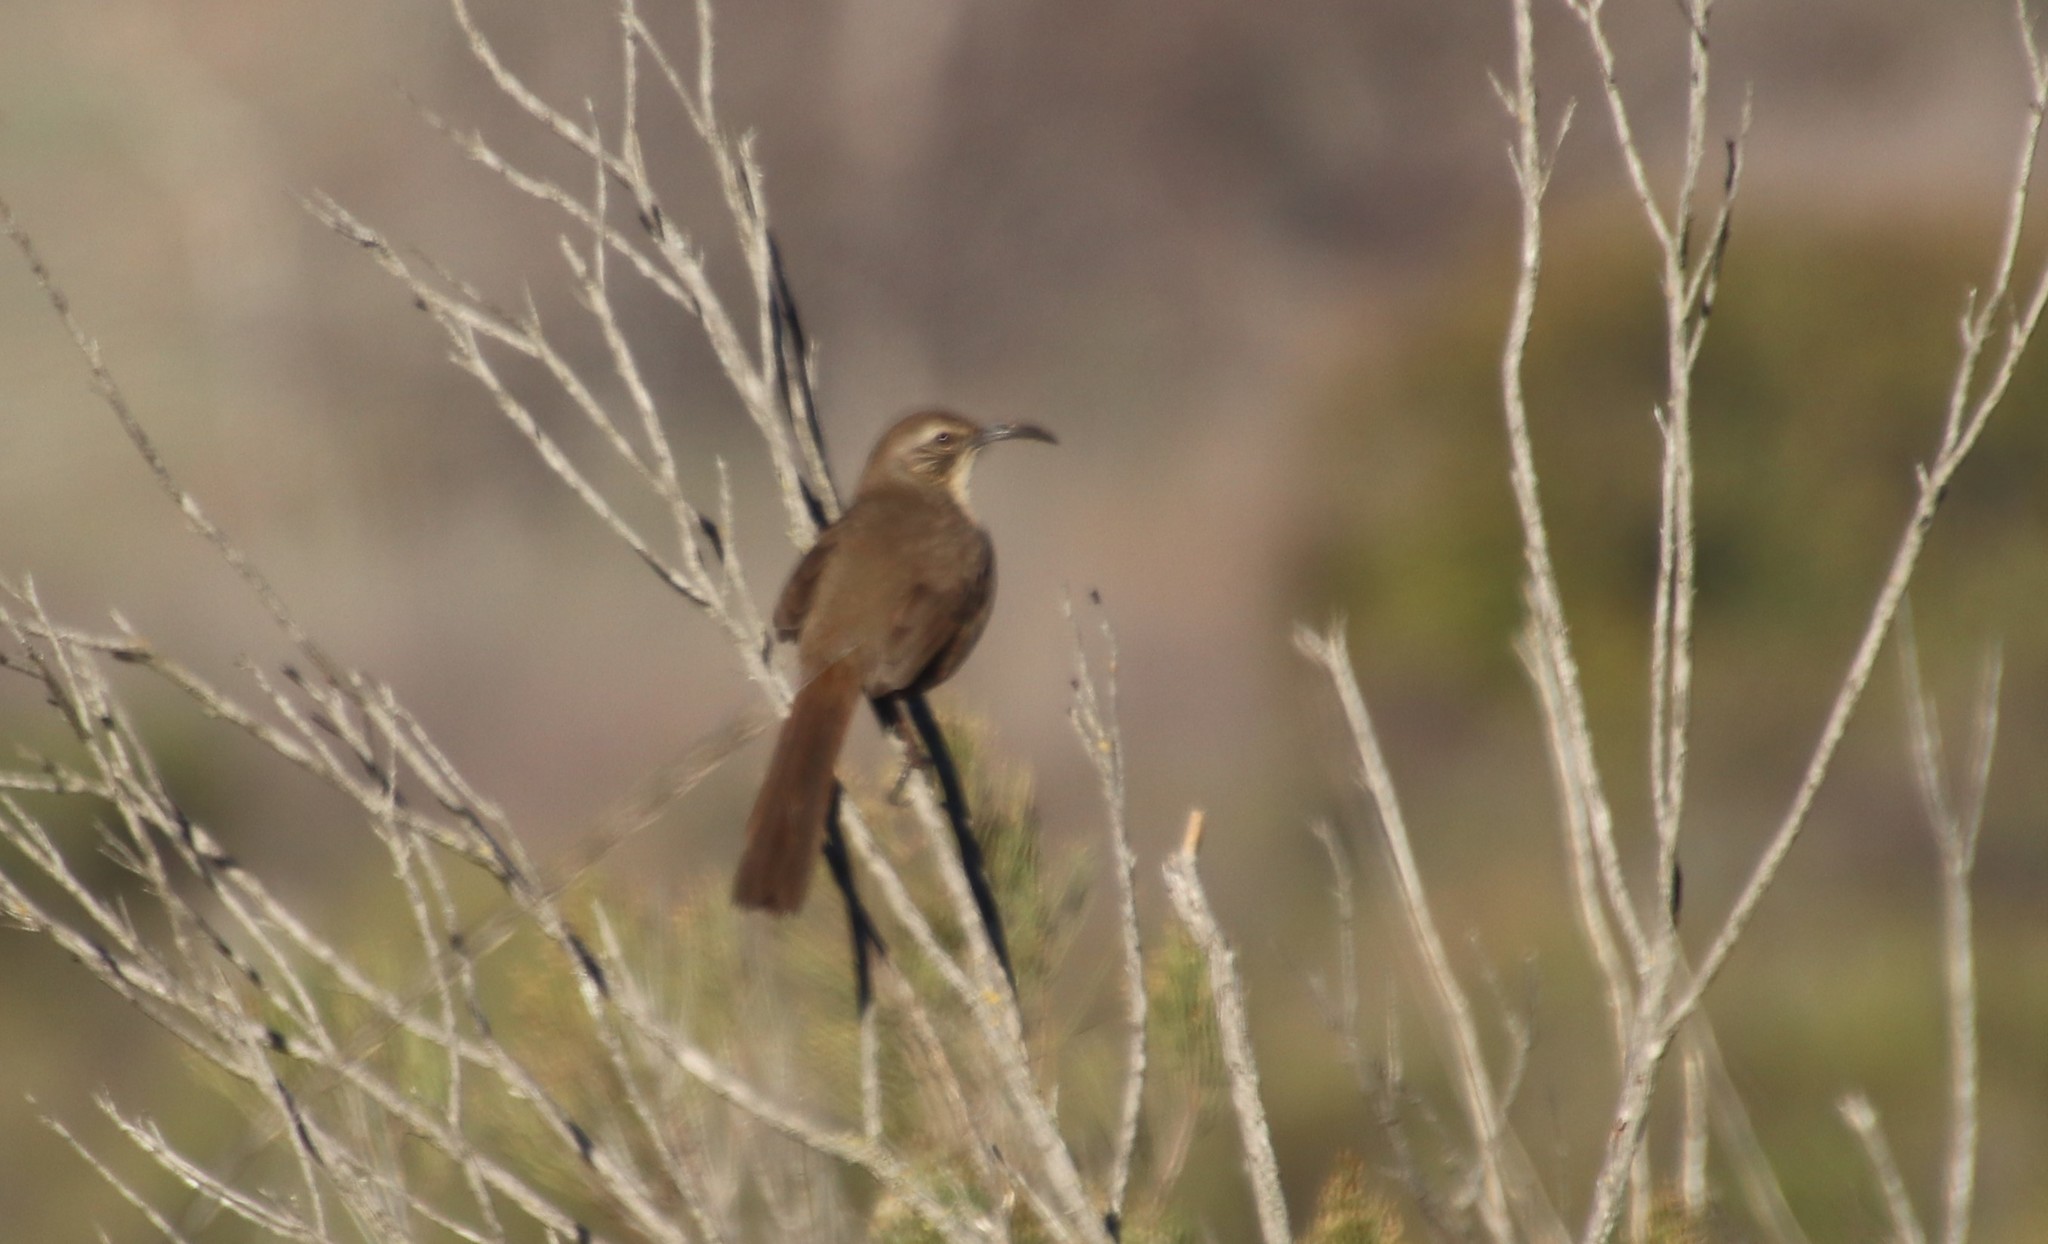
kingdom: Animalia
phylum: Chordata
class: Aves
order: Passeriformes
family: Mimidae
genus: Toxostoma
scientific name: Toxostoma redivivum
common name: California thrasher
